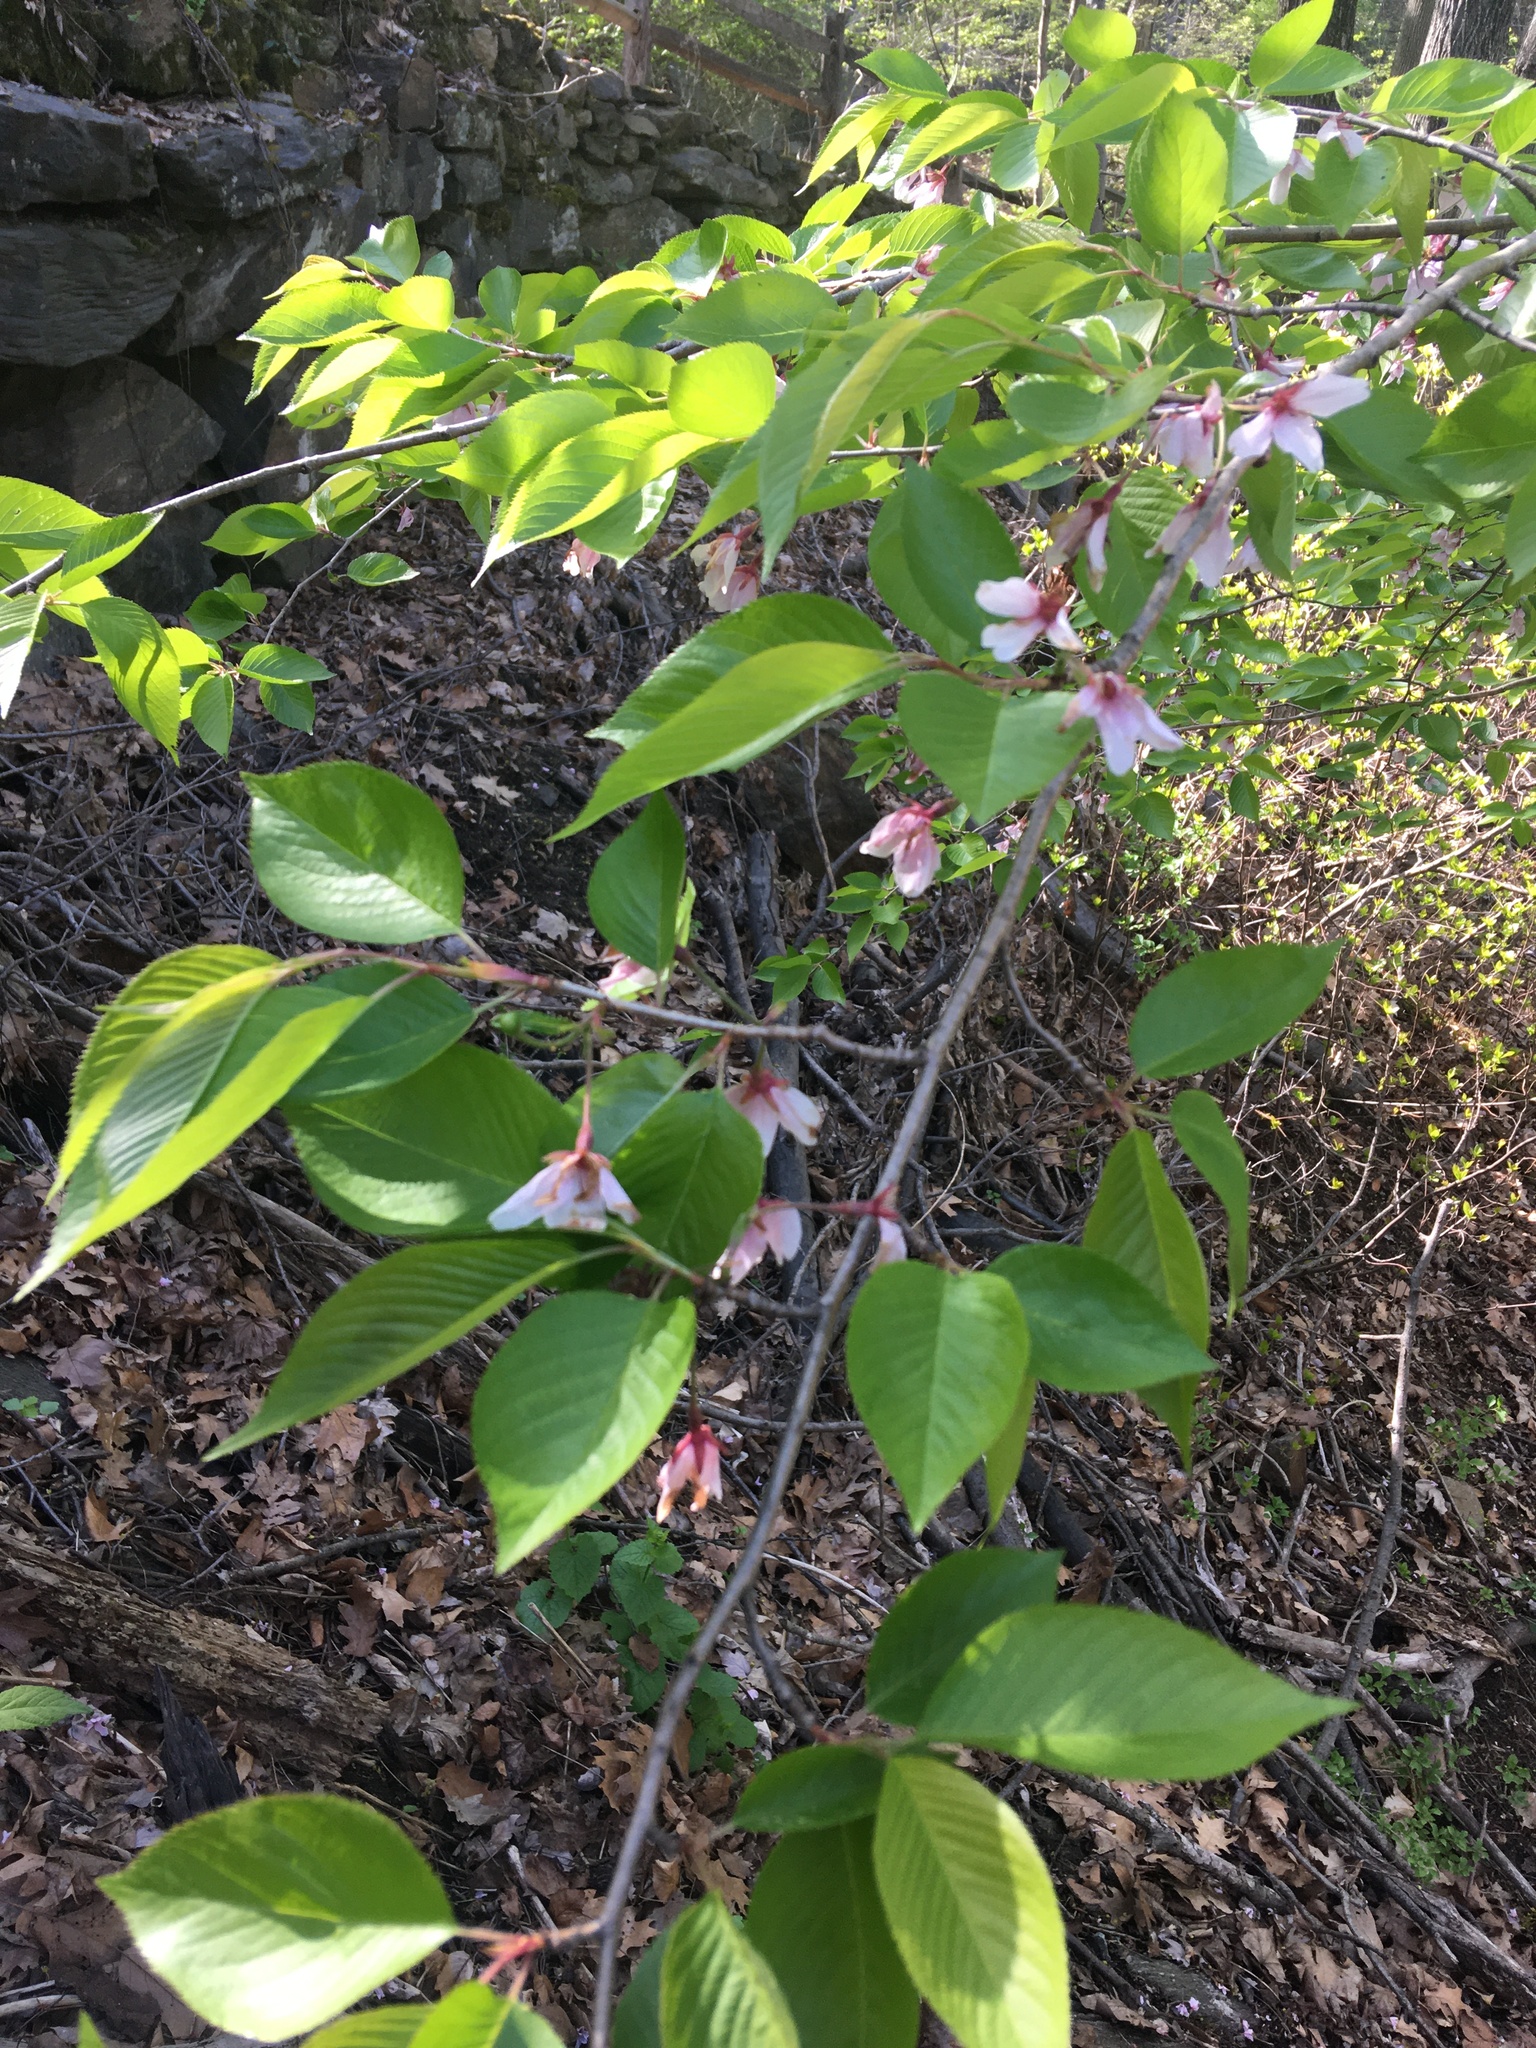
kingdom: Plantae
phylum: Tracheophyta
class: Magnoliopsida
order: Rosales
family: Rosaceae
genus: Prunus
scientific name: Prunus yedoensis
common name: Yoshino cherry
